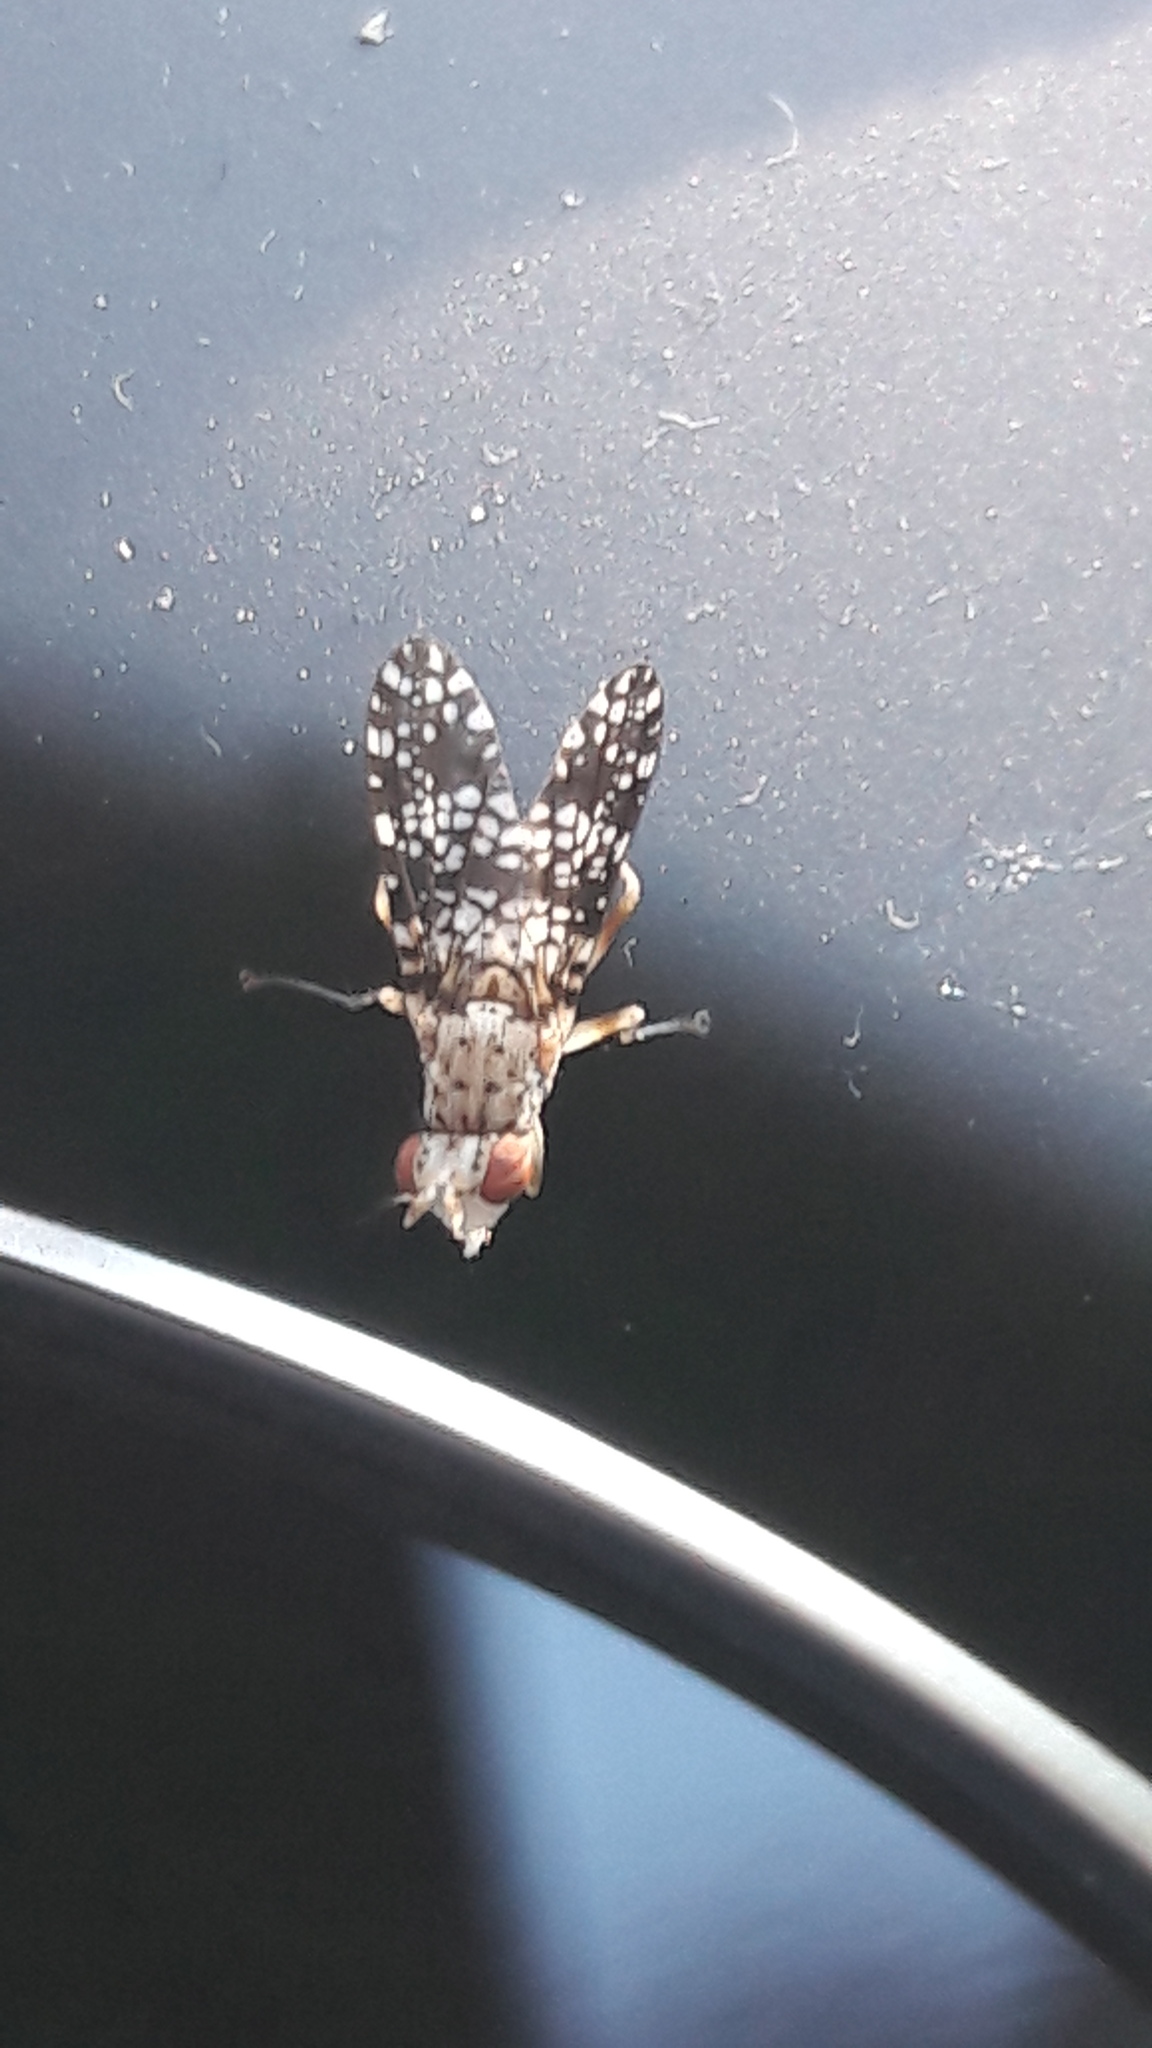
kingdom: Animalia
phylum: Arthropoda
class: Insecta
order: Diptera
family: Sciomyzidae
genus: Trypetoptera
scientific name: Trypetoptera punctulata
